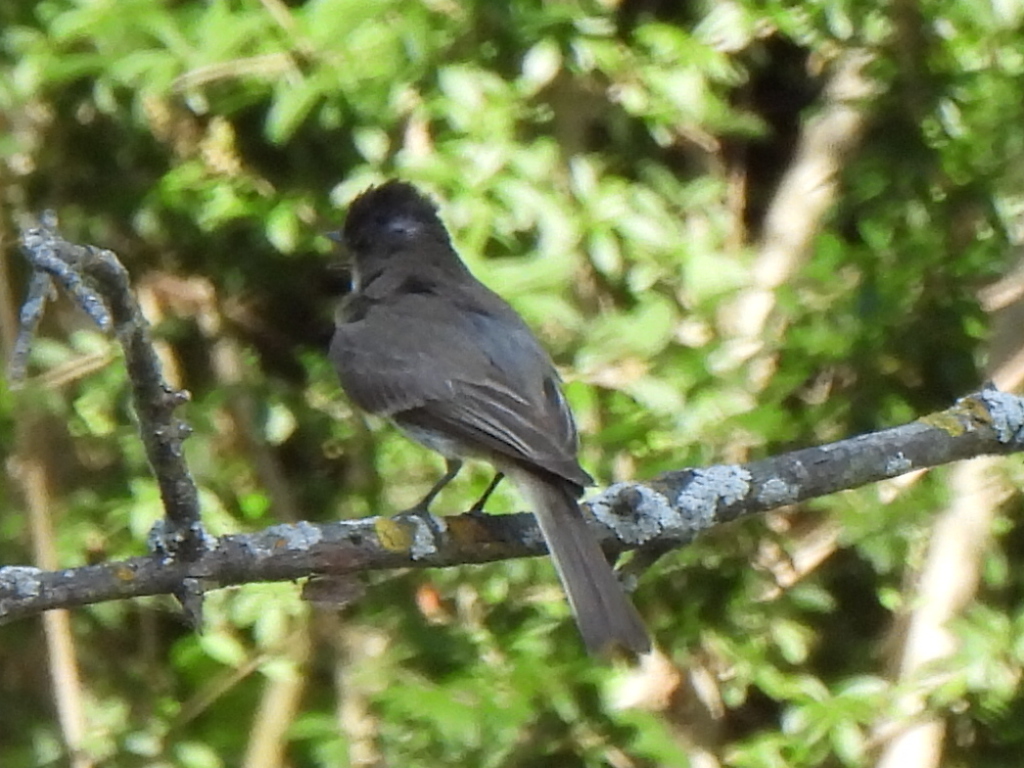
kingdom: Animalia
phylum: Chordata
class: Aves
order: Passeriformes
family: Tyrannidae
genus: Sayornis
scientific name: Sayornis phoebe
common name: Eastern phoebe
